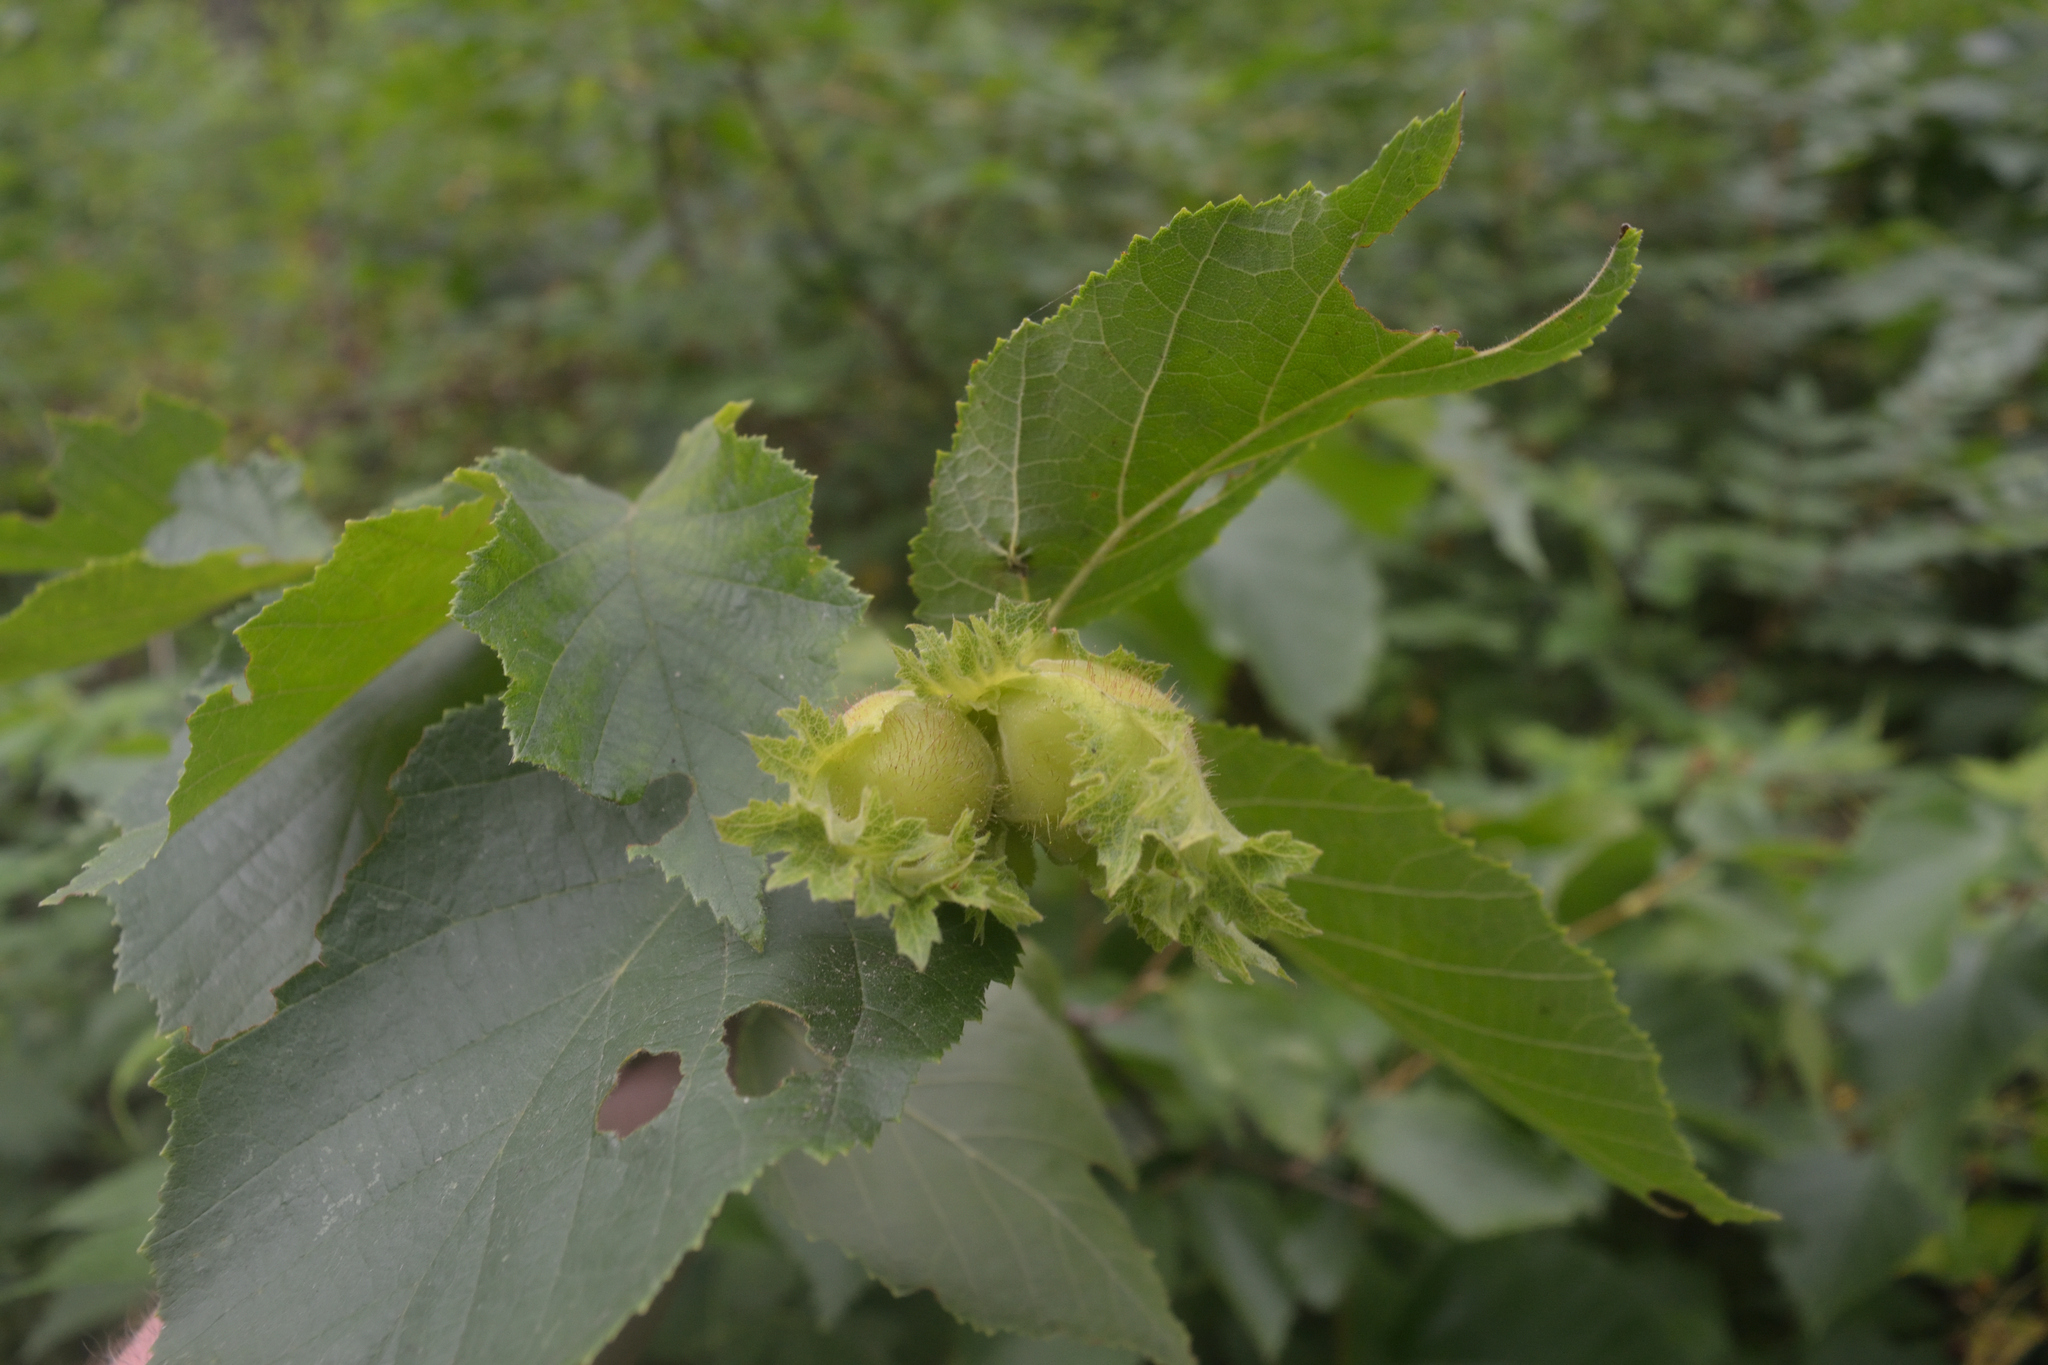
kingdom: Plantae
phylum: Tracheophyta
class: Magnoliopsida
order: Fagales
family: Betulaceae
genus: Corylus
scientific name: Corylus americana
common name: American hazel
